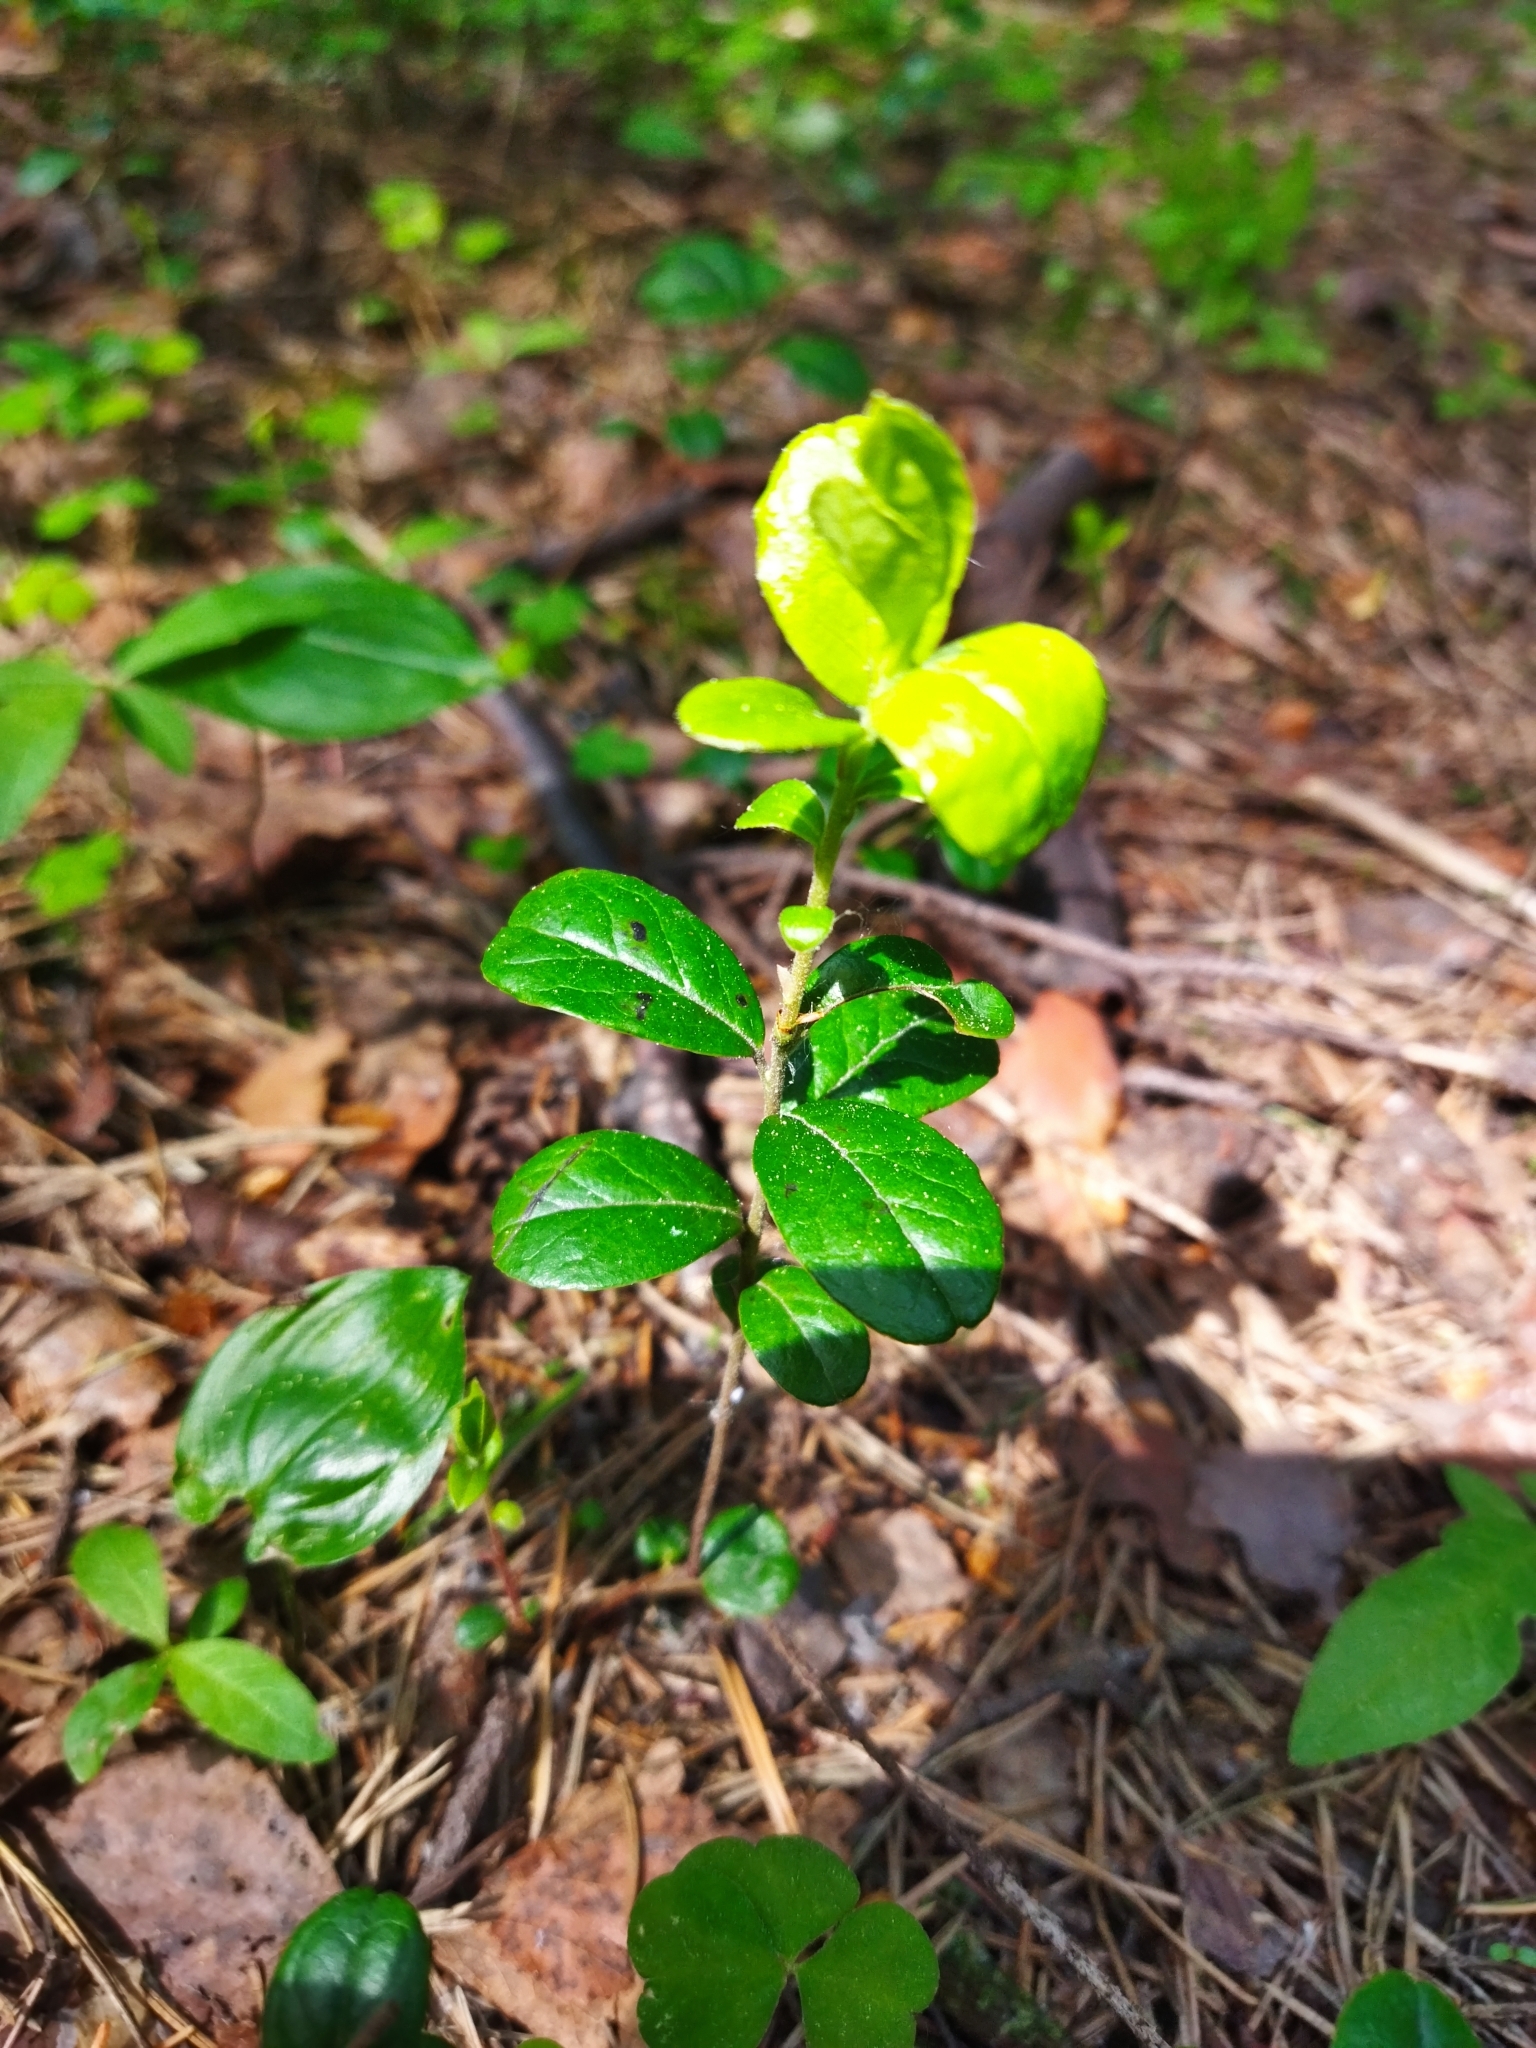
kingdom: Plantae
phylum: Tracheophyta
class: Magnoliopsida
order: Ericales
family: Ericaceae
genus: Vaccinium
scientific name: Vaccinium vitis-idaea
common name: Cowberry
